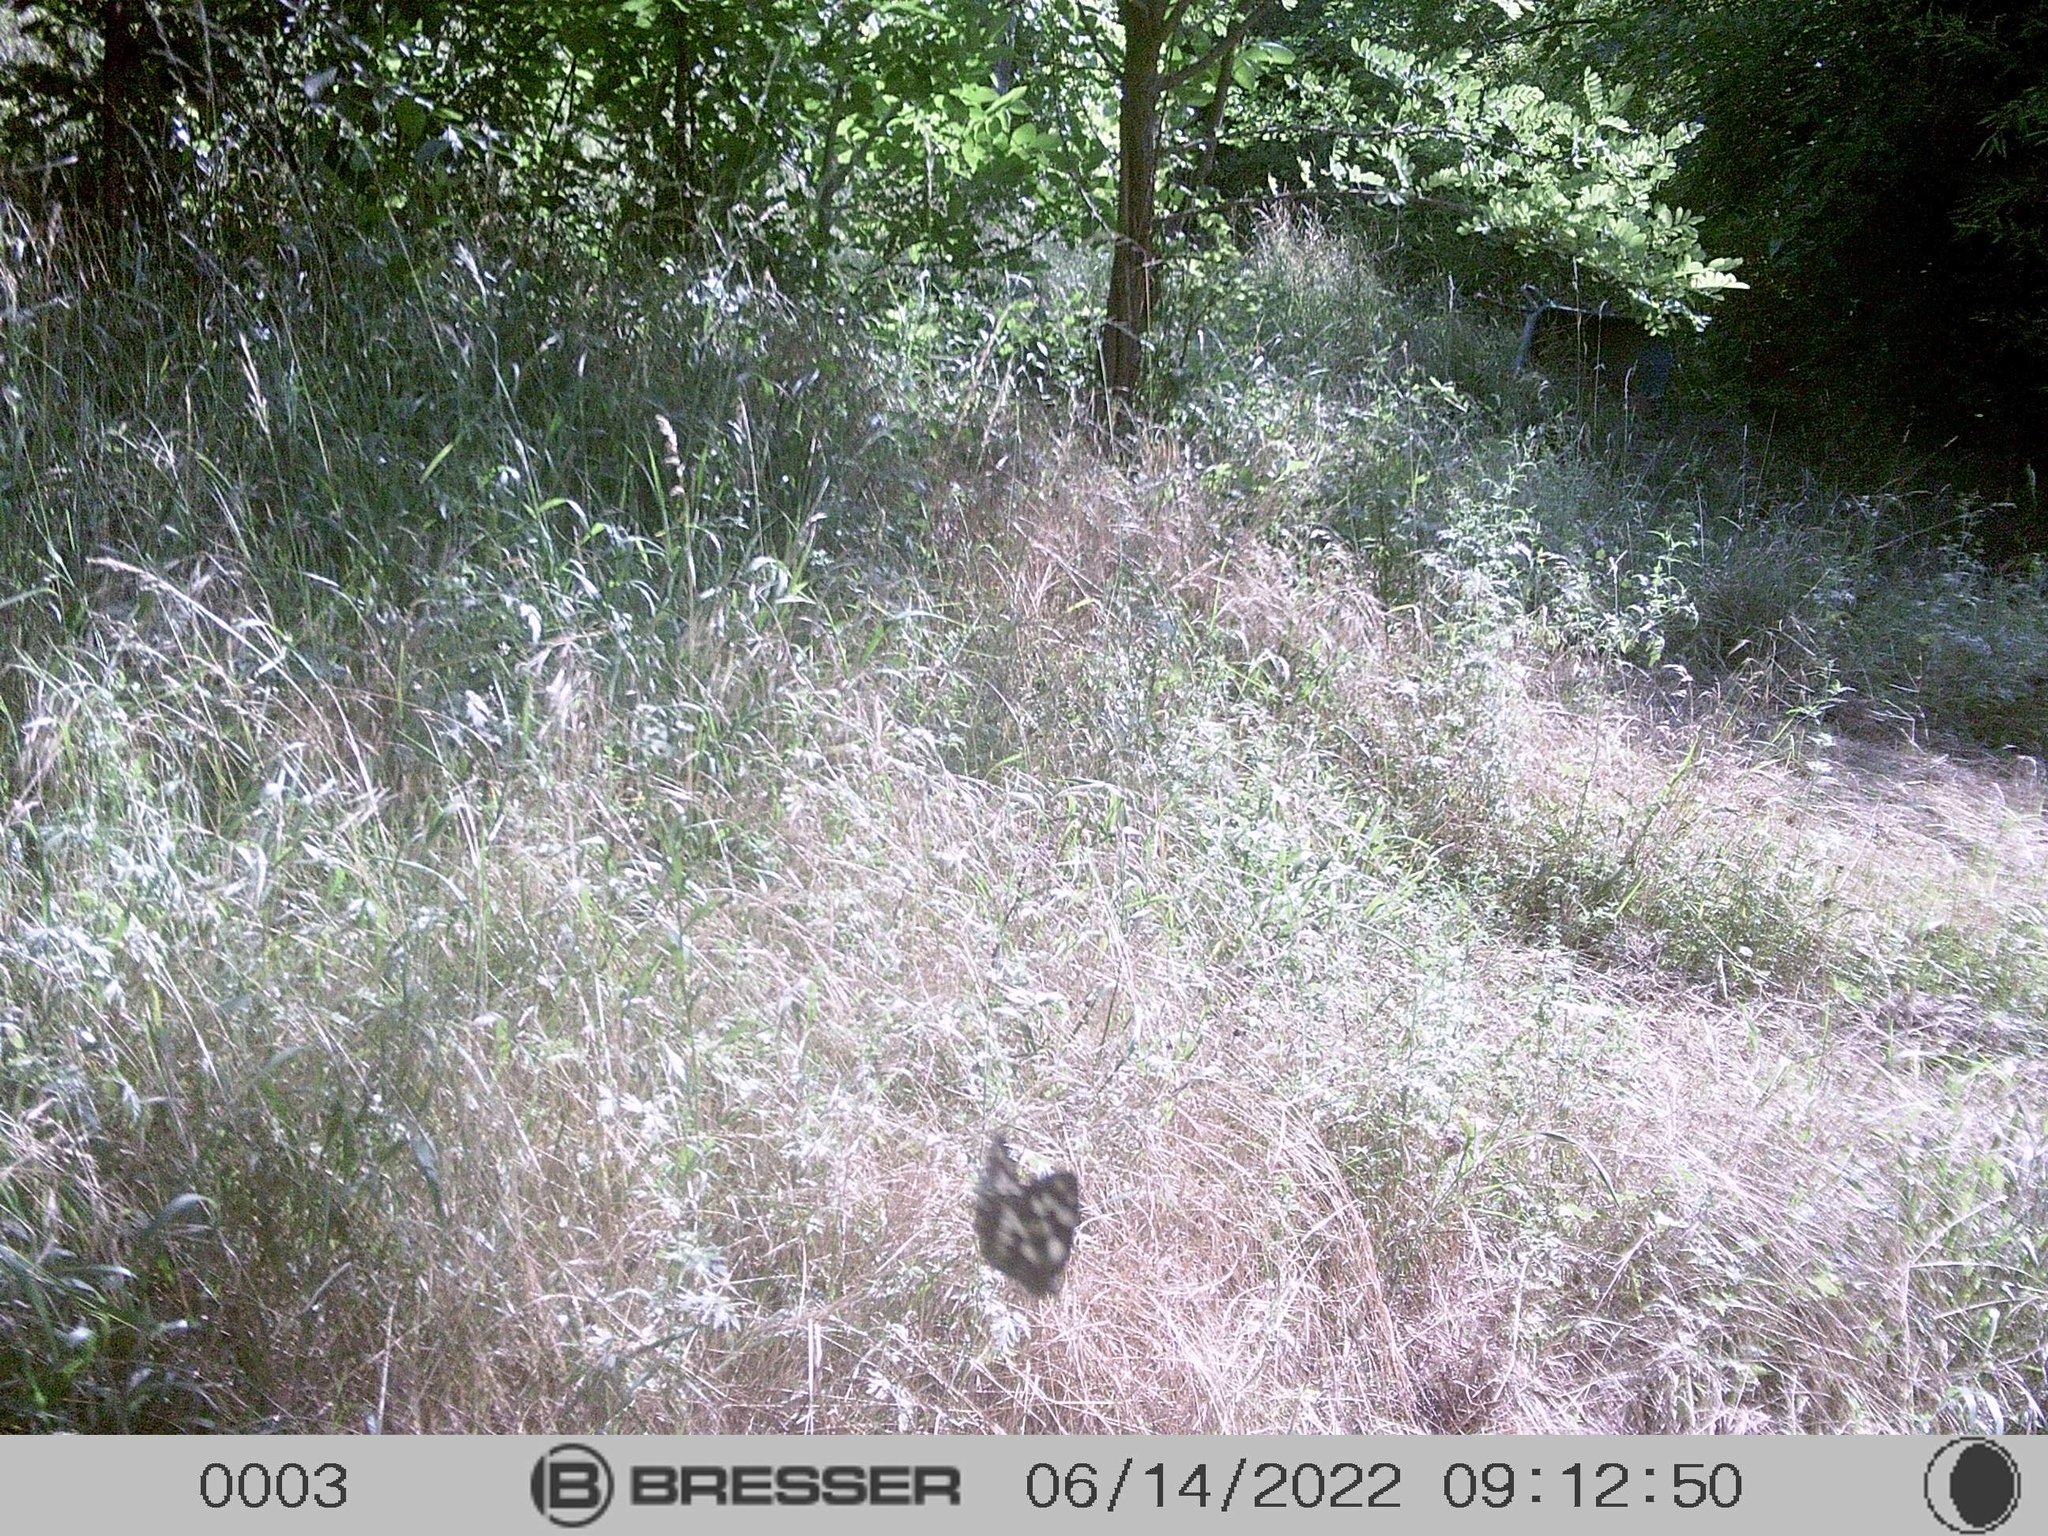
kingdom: Animalia
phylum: Arthropoda
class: Insecta
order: Lepidoptera
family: Nymphalidae
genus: Melanargia
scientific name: Melanargia galathea
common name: Marbled white
